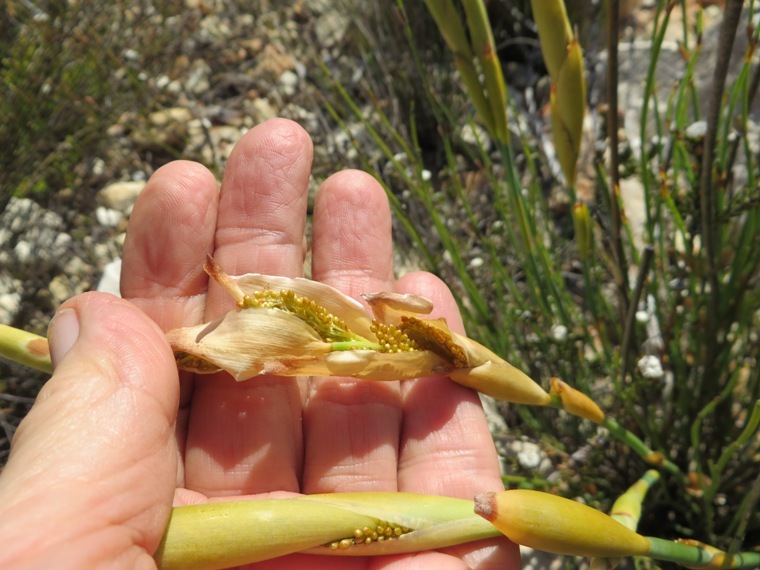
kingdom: Plantae
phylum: Tracheophyta
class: Liliopsida
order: Poales
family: Restionaceae
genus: Elegia
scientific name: Elegia persistens
